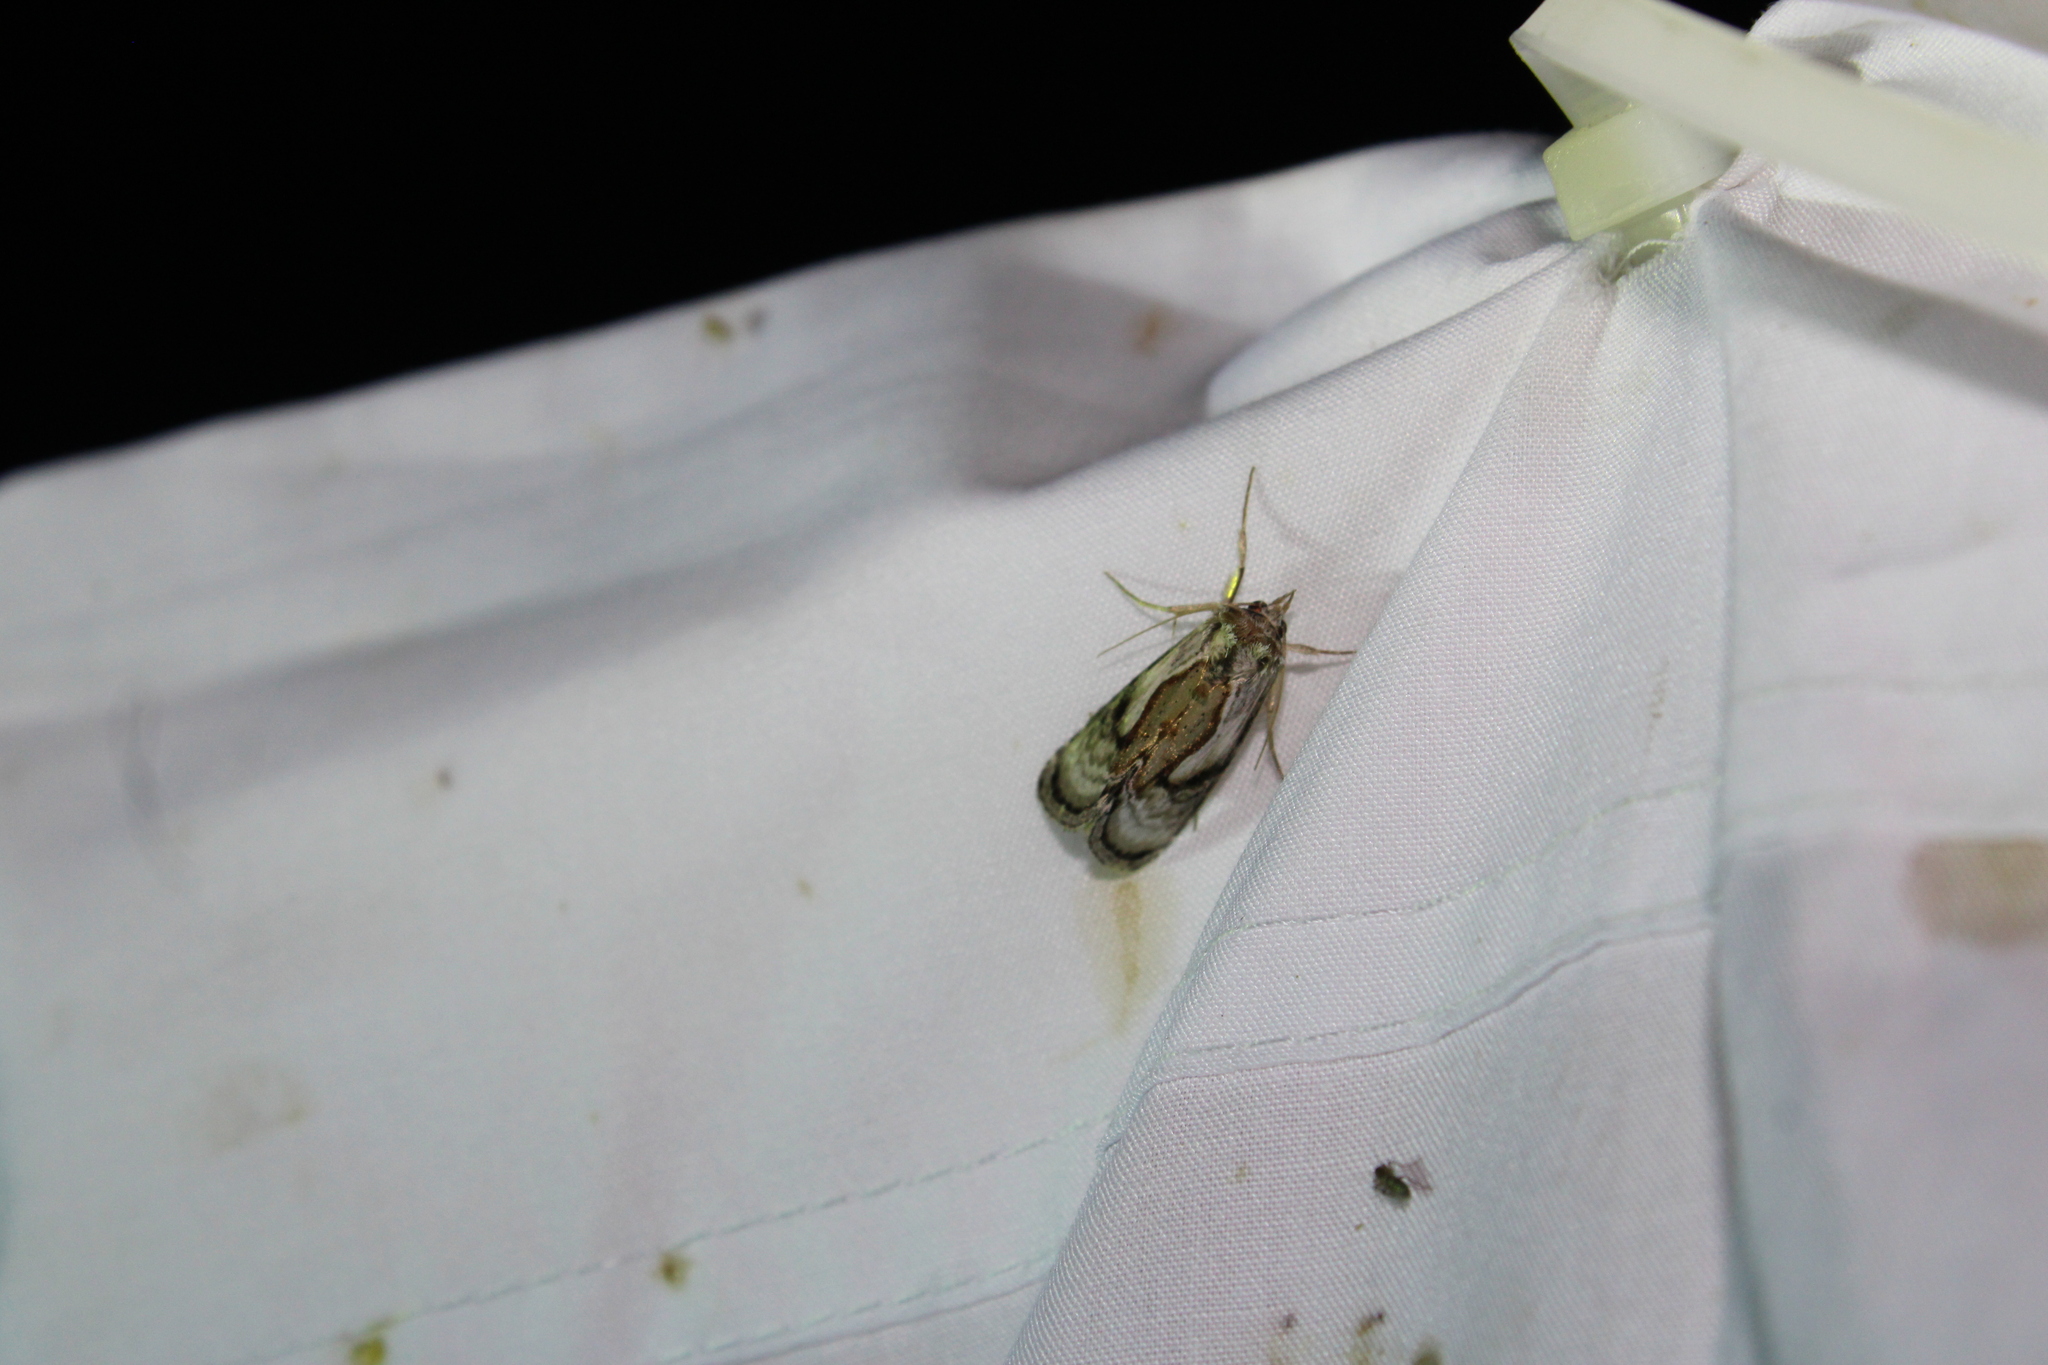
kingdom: Animalia
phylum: Arthropoda
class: Insecta
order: Lepidoptera
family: Noctuidae
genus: Chrysanympha
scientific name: Chrysanympha formosa
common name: Formosa looper moth
